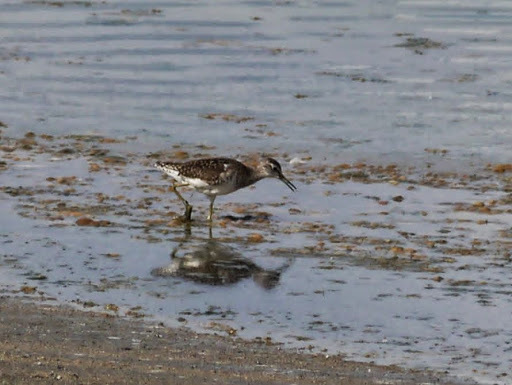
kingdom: Animalia
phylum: Chordata
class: Aves
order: Charadriiformes
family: Scolopacidae
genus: Tringa
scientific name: Tringa glareola
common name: Wood sandpiper
